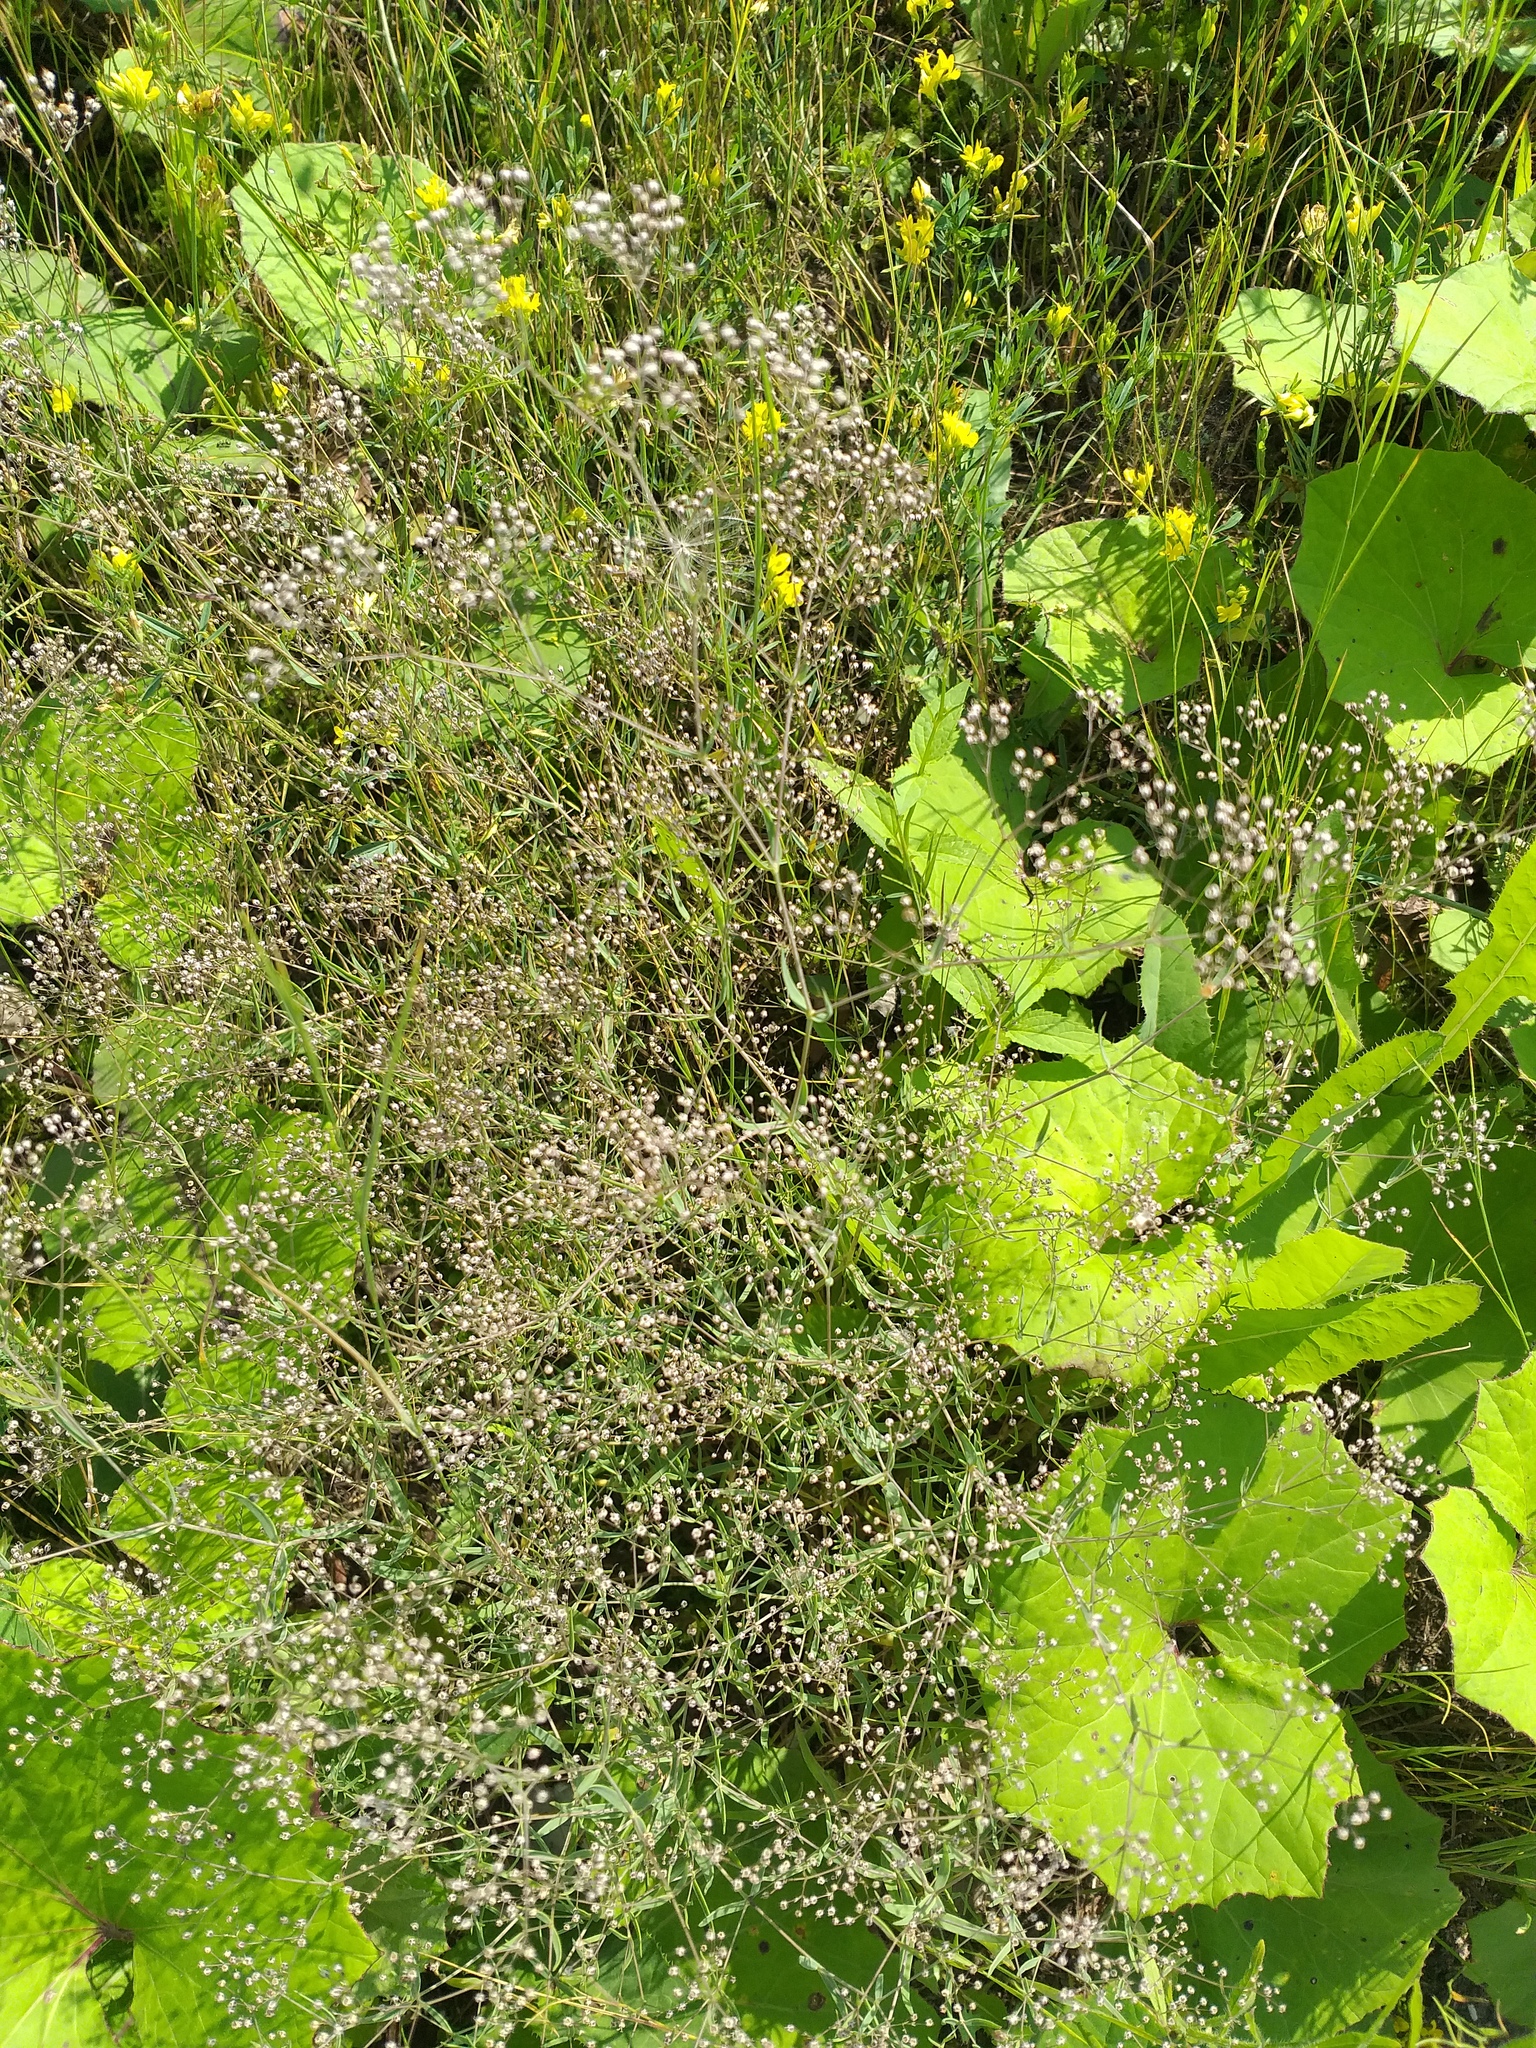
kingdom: Plantae
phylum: Tracheophyta
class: Magnoliopsida
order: Caryophyllales
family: Caryophyllaceae
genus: Gypsophila
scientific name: Gypsophila paniculata
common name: Baby's-breath
